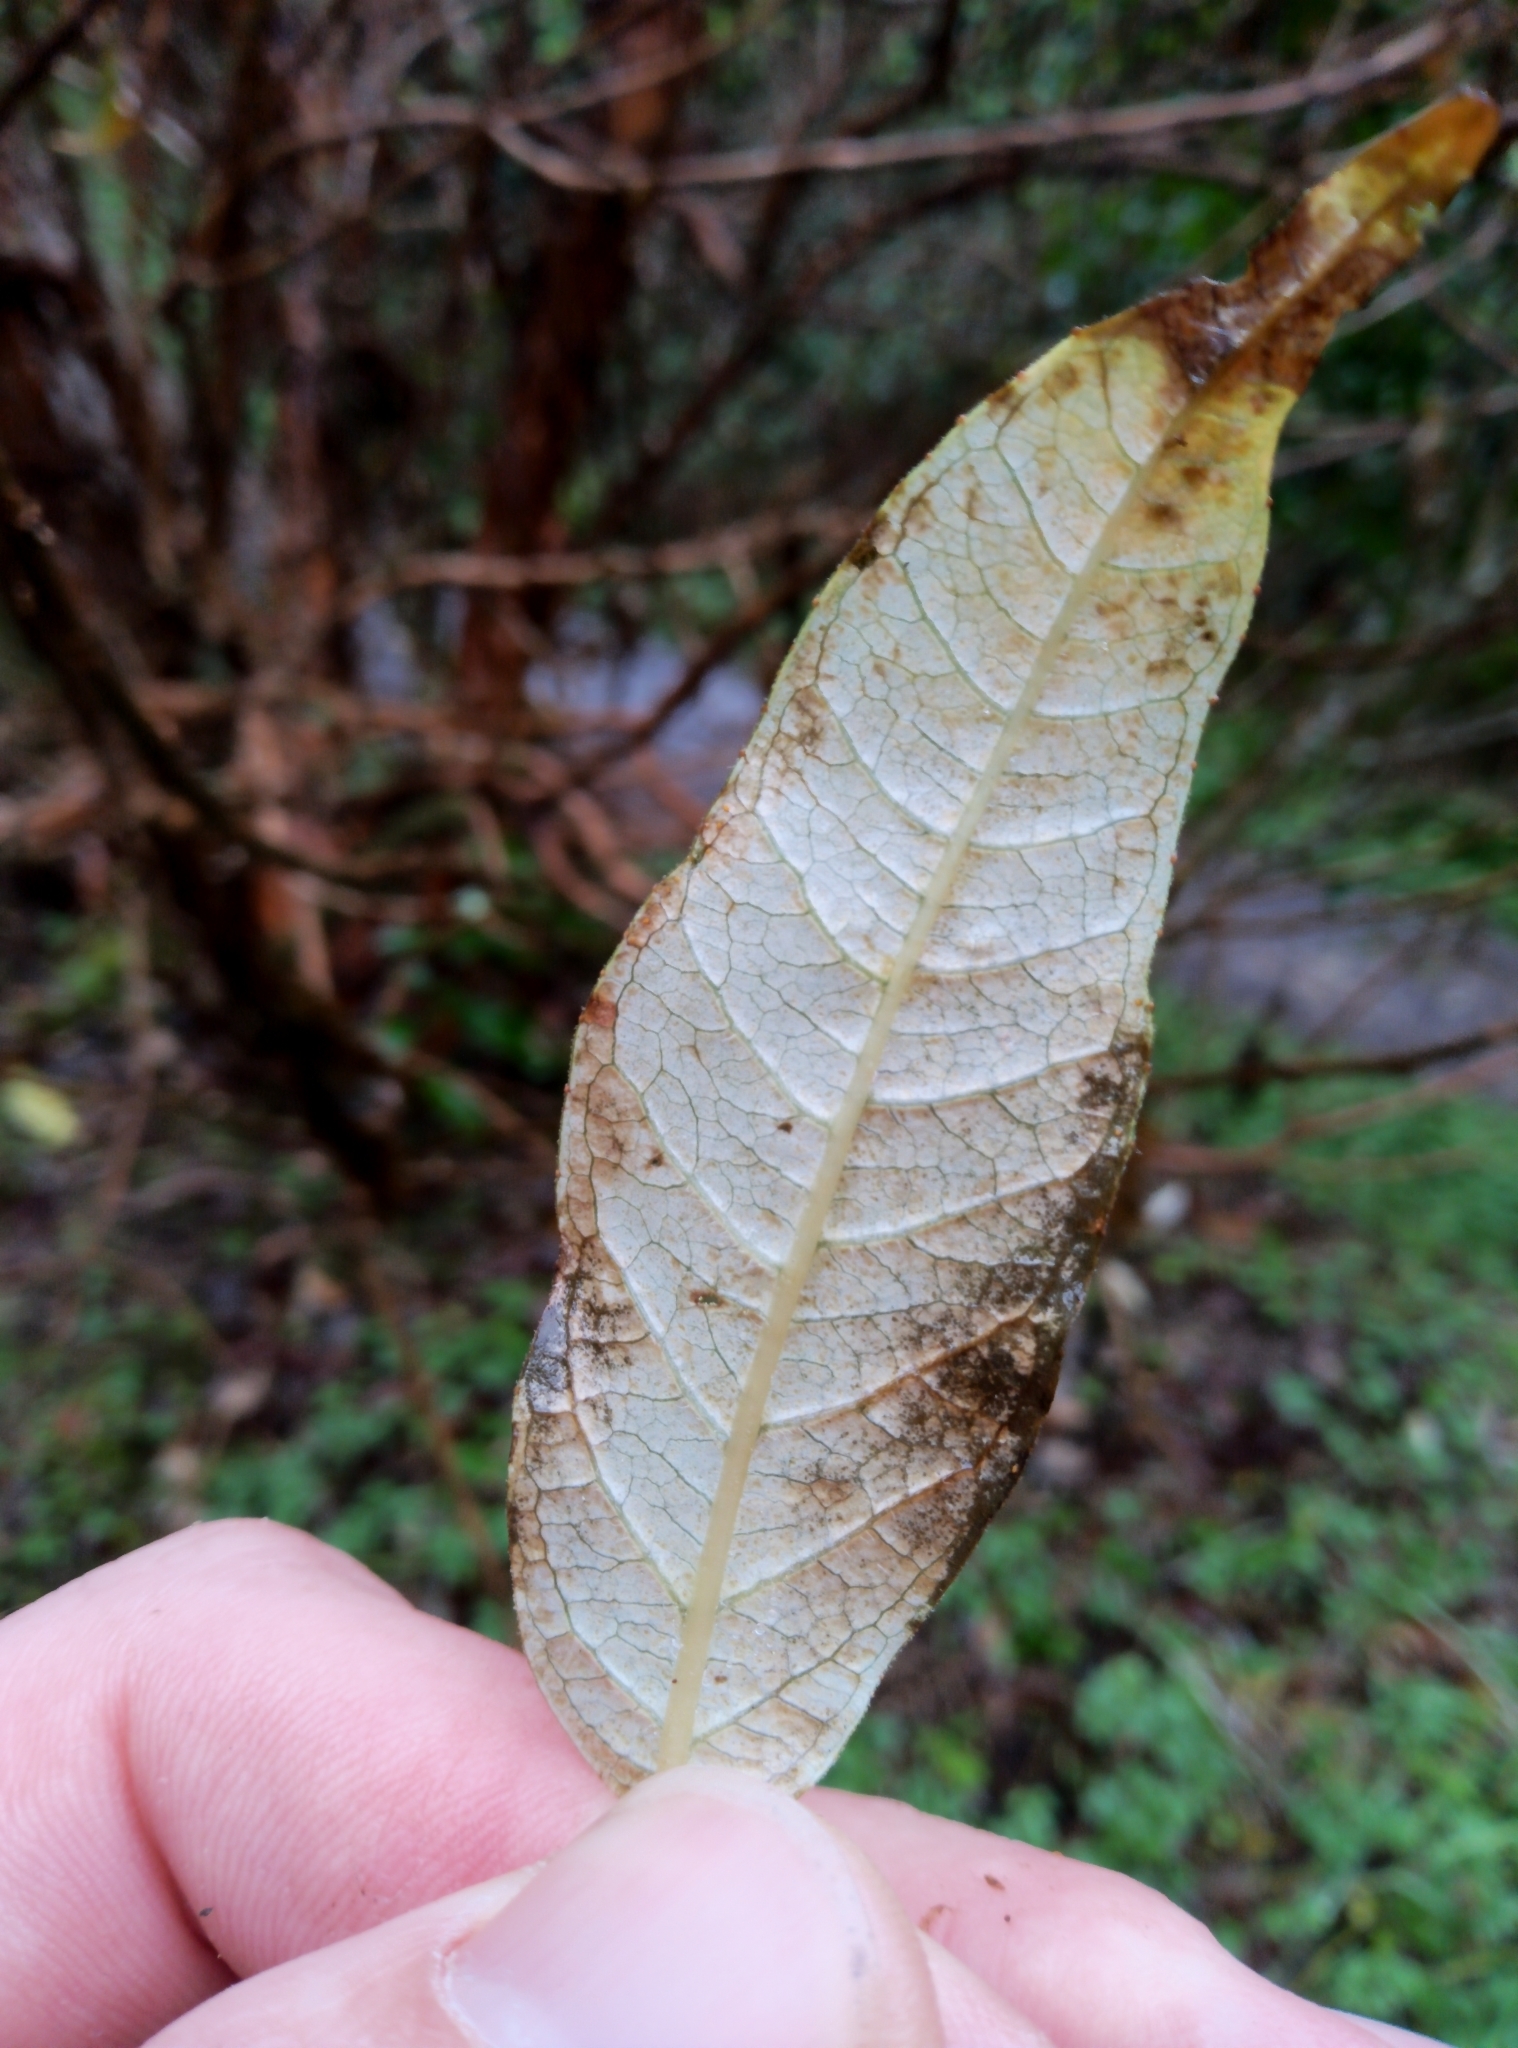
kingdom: Plantae
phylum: Tracheophyta
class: Magnoliopsida
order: Myrtales
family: Onagraceae
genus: Fuchsia
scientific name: Fuchsia excorticata
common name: Tree fuchsia
